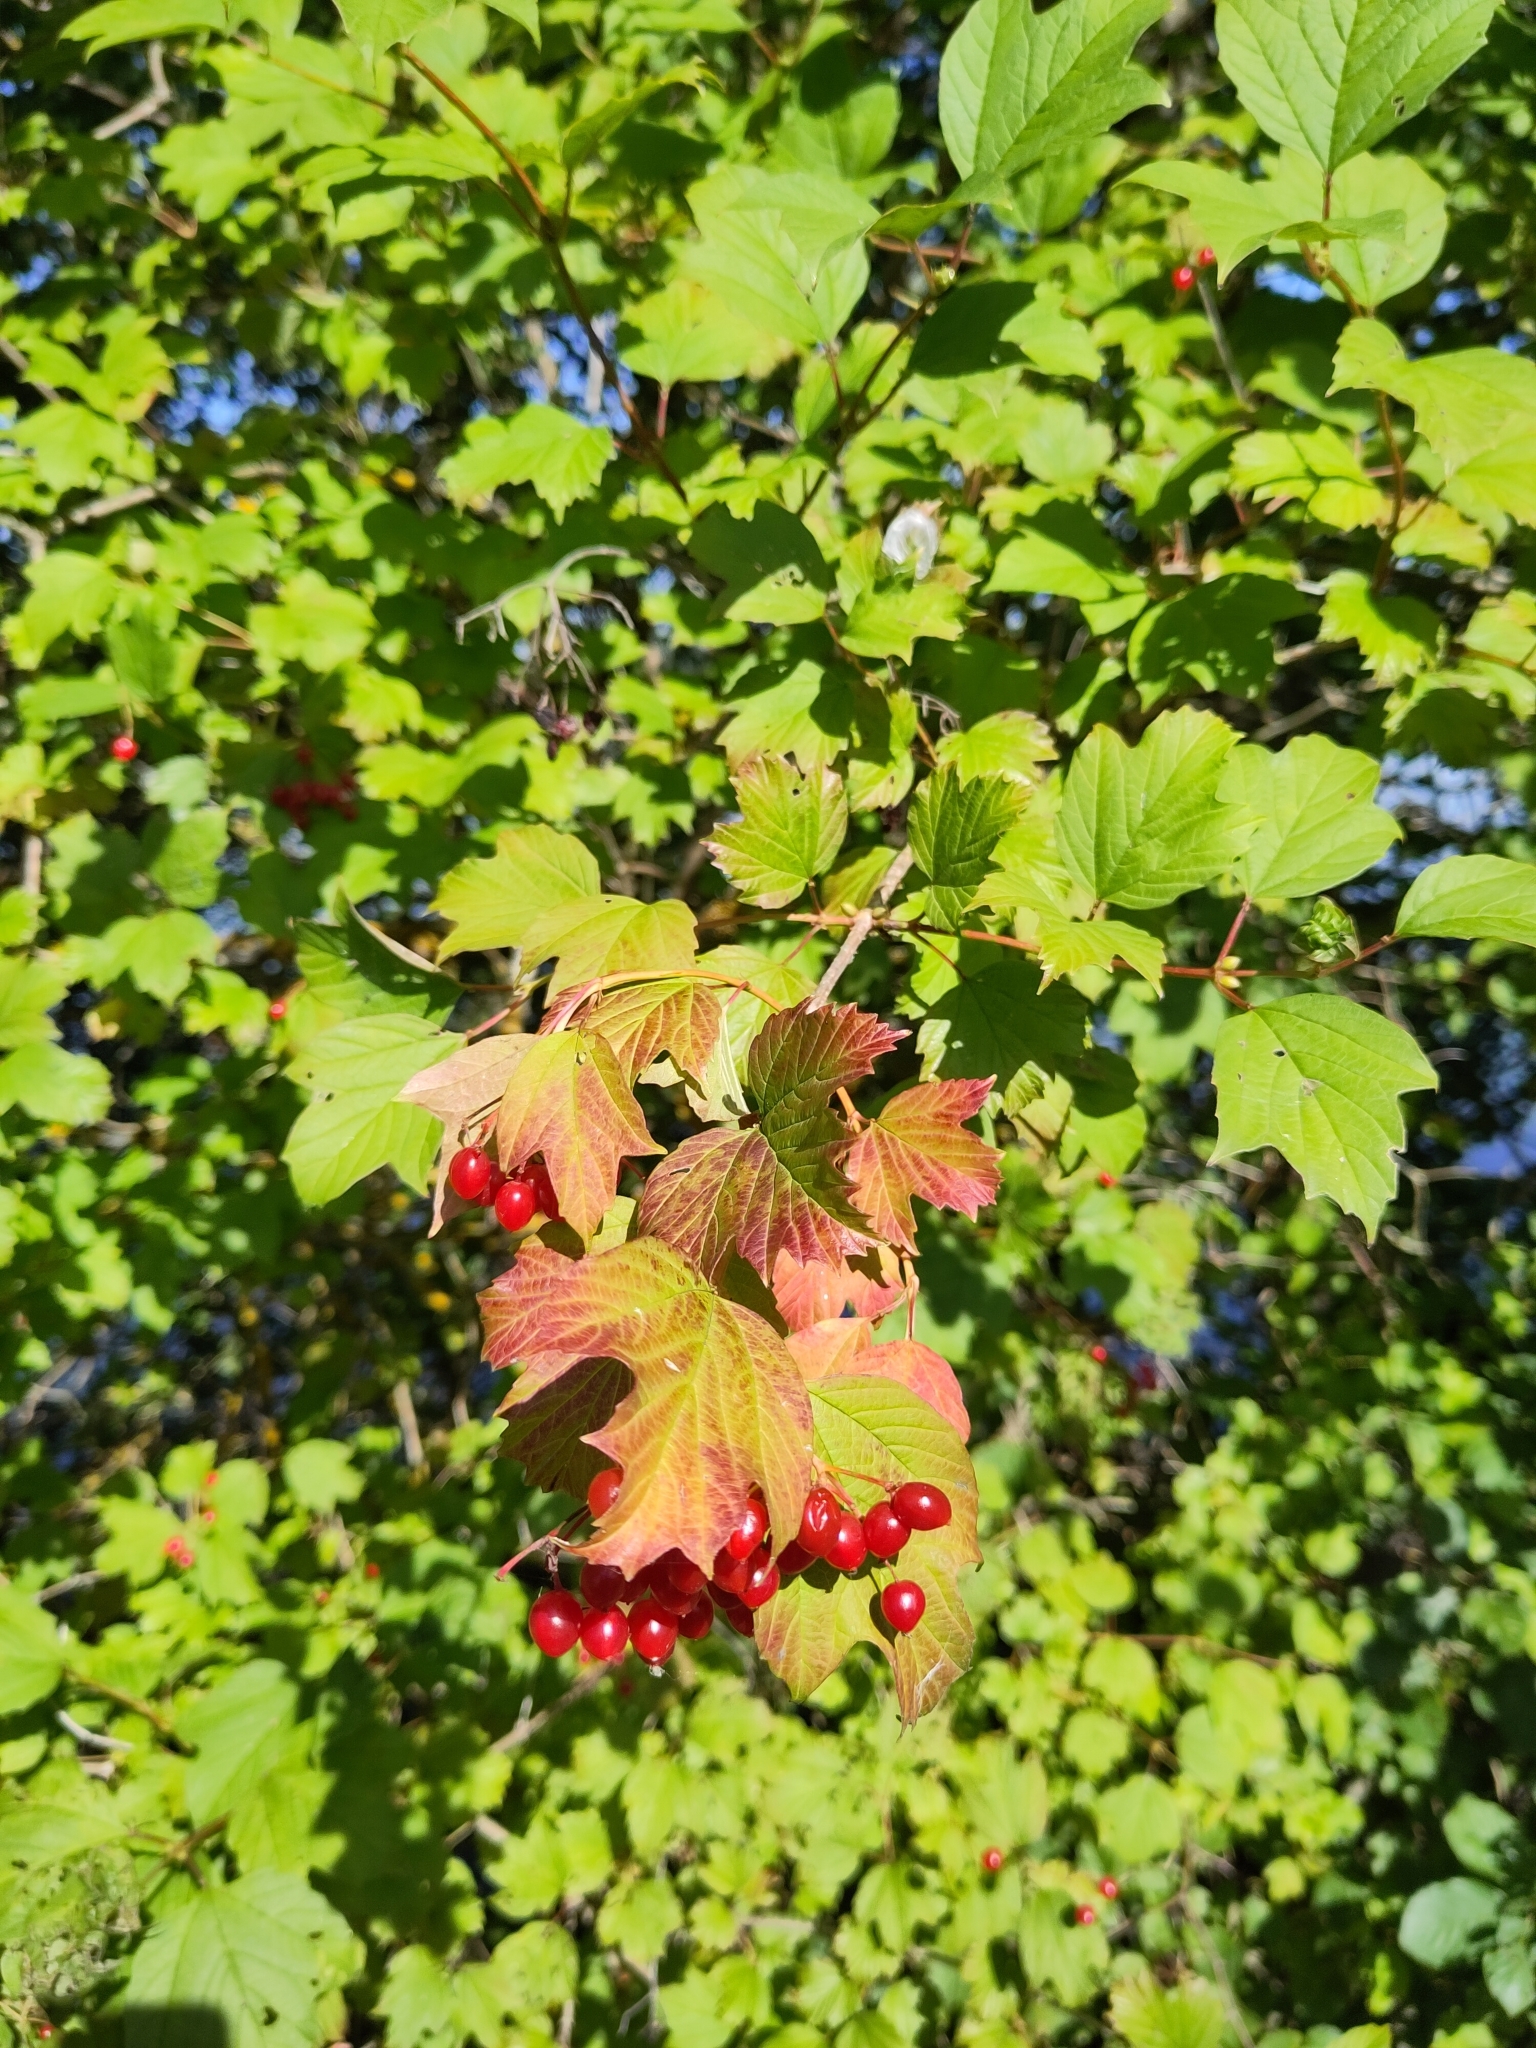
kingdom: Plantae
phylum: Tracheophyta
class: Magnoliopsida
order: Dipsacales
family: Viburnaceae
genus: Viburnum
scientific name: Viburnum opulus
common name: Guelder-rose
